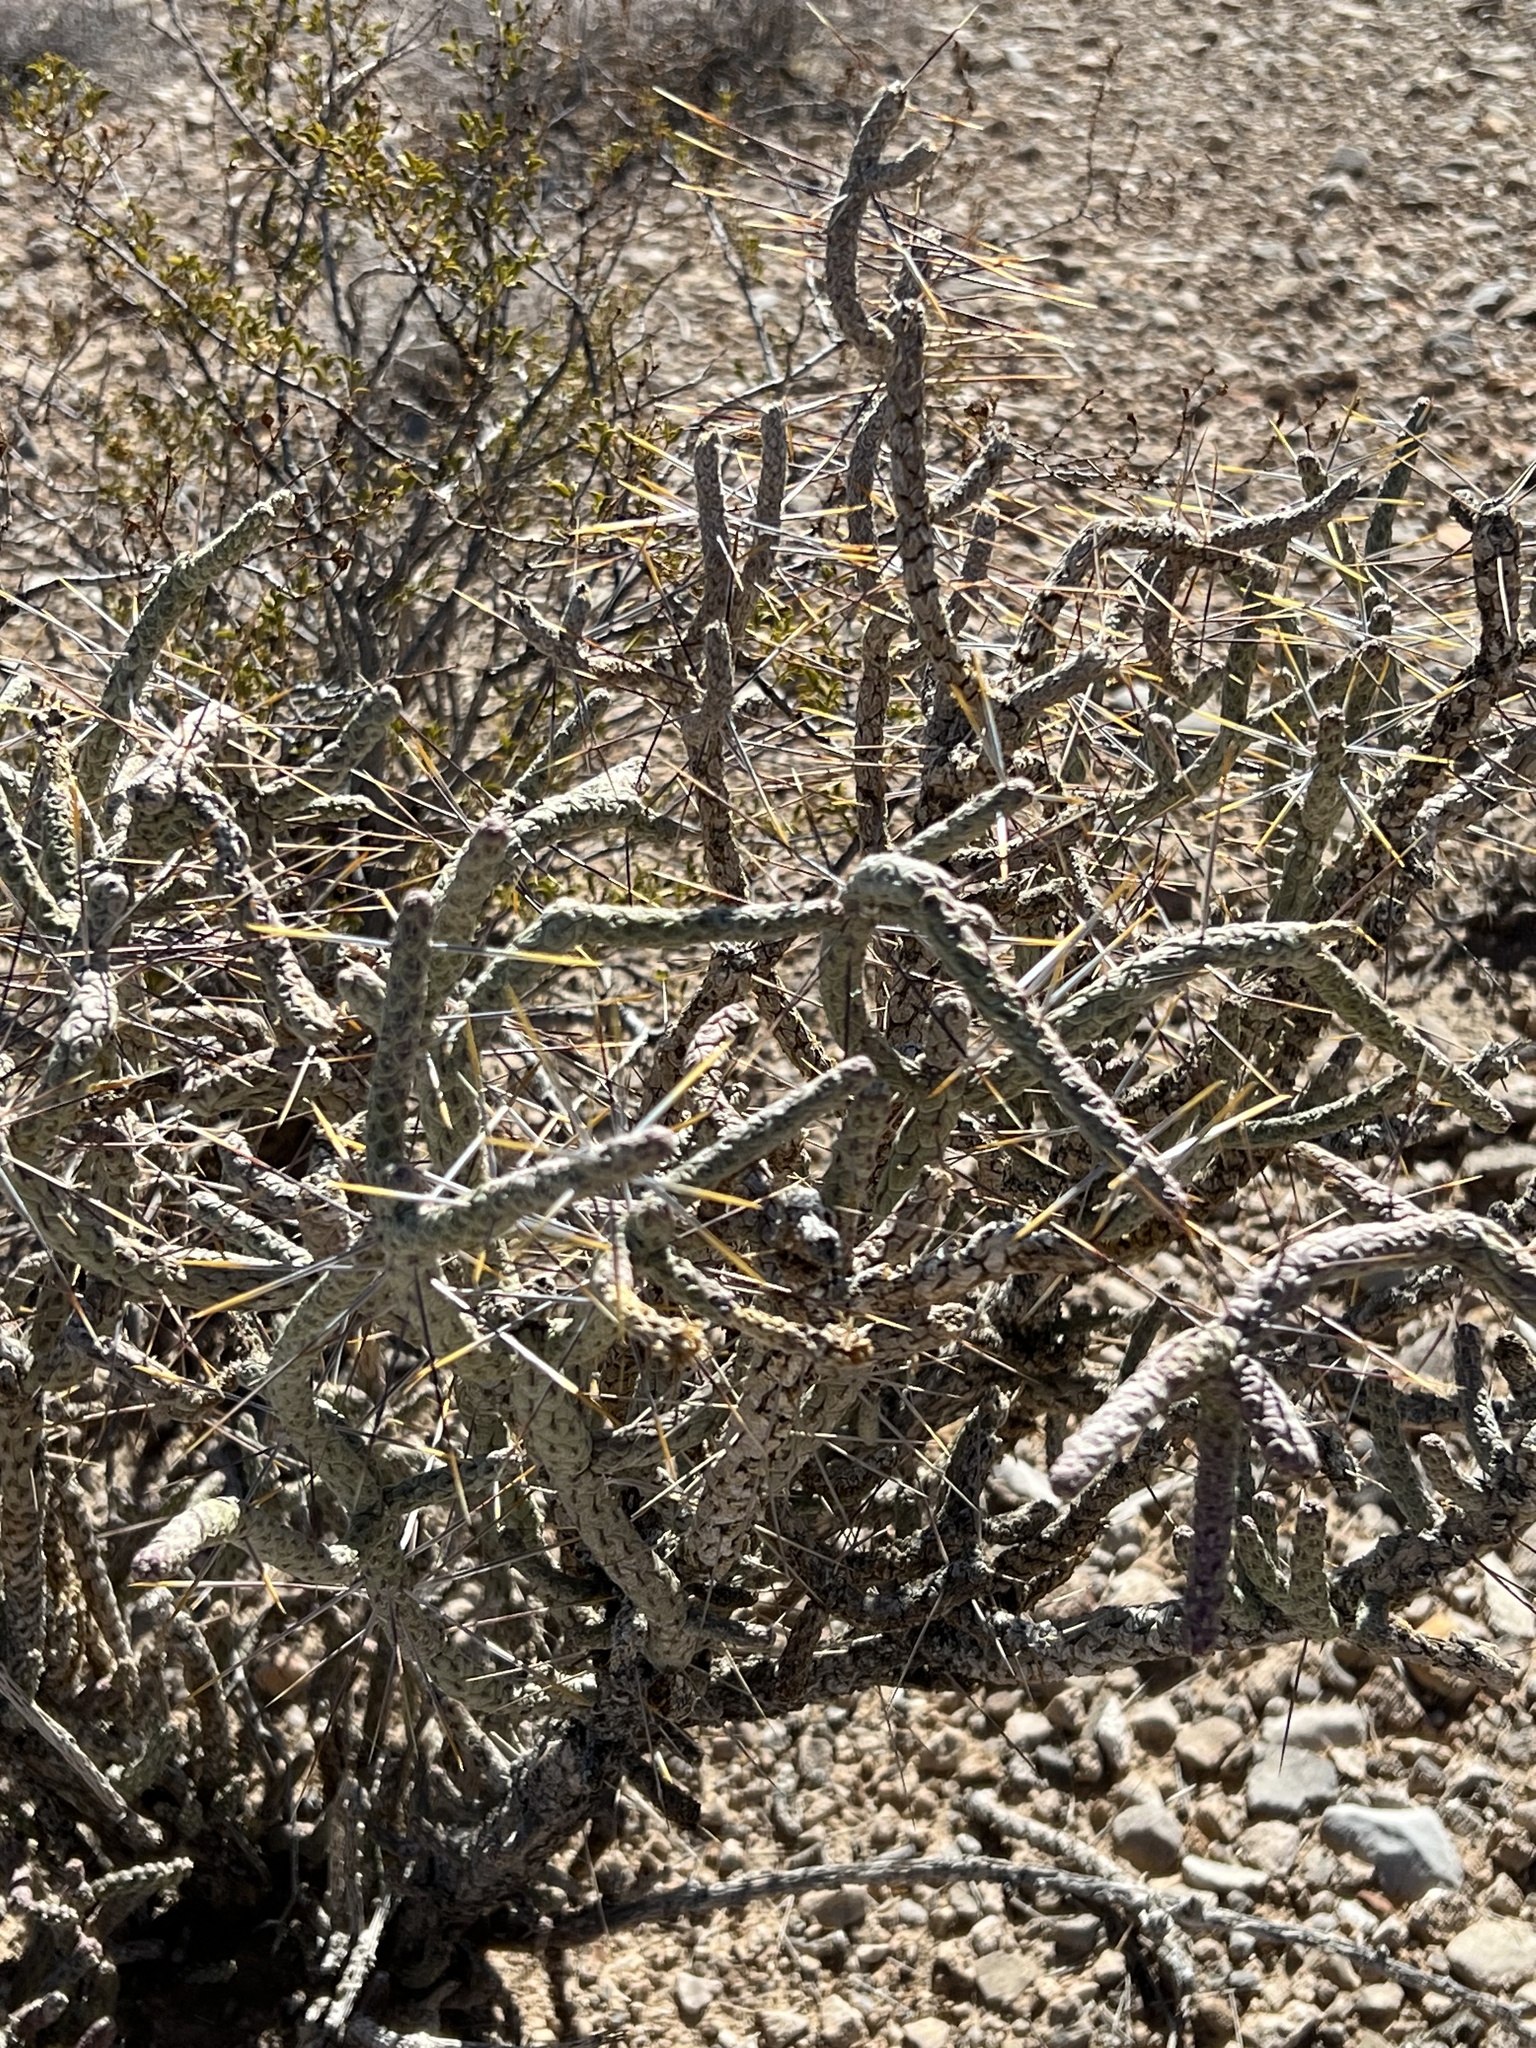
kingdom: Plantae
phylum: Tracheophyta
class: Magnoliopsida
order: Caryophyllales
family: Cactaceae
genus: Cylindropuntia
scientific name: Cylindropuntia ramosissima
